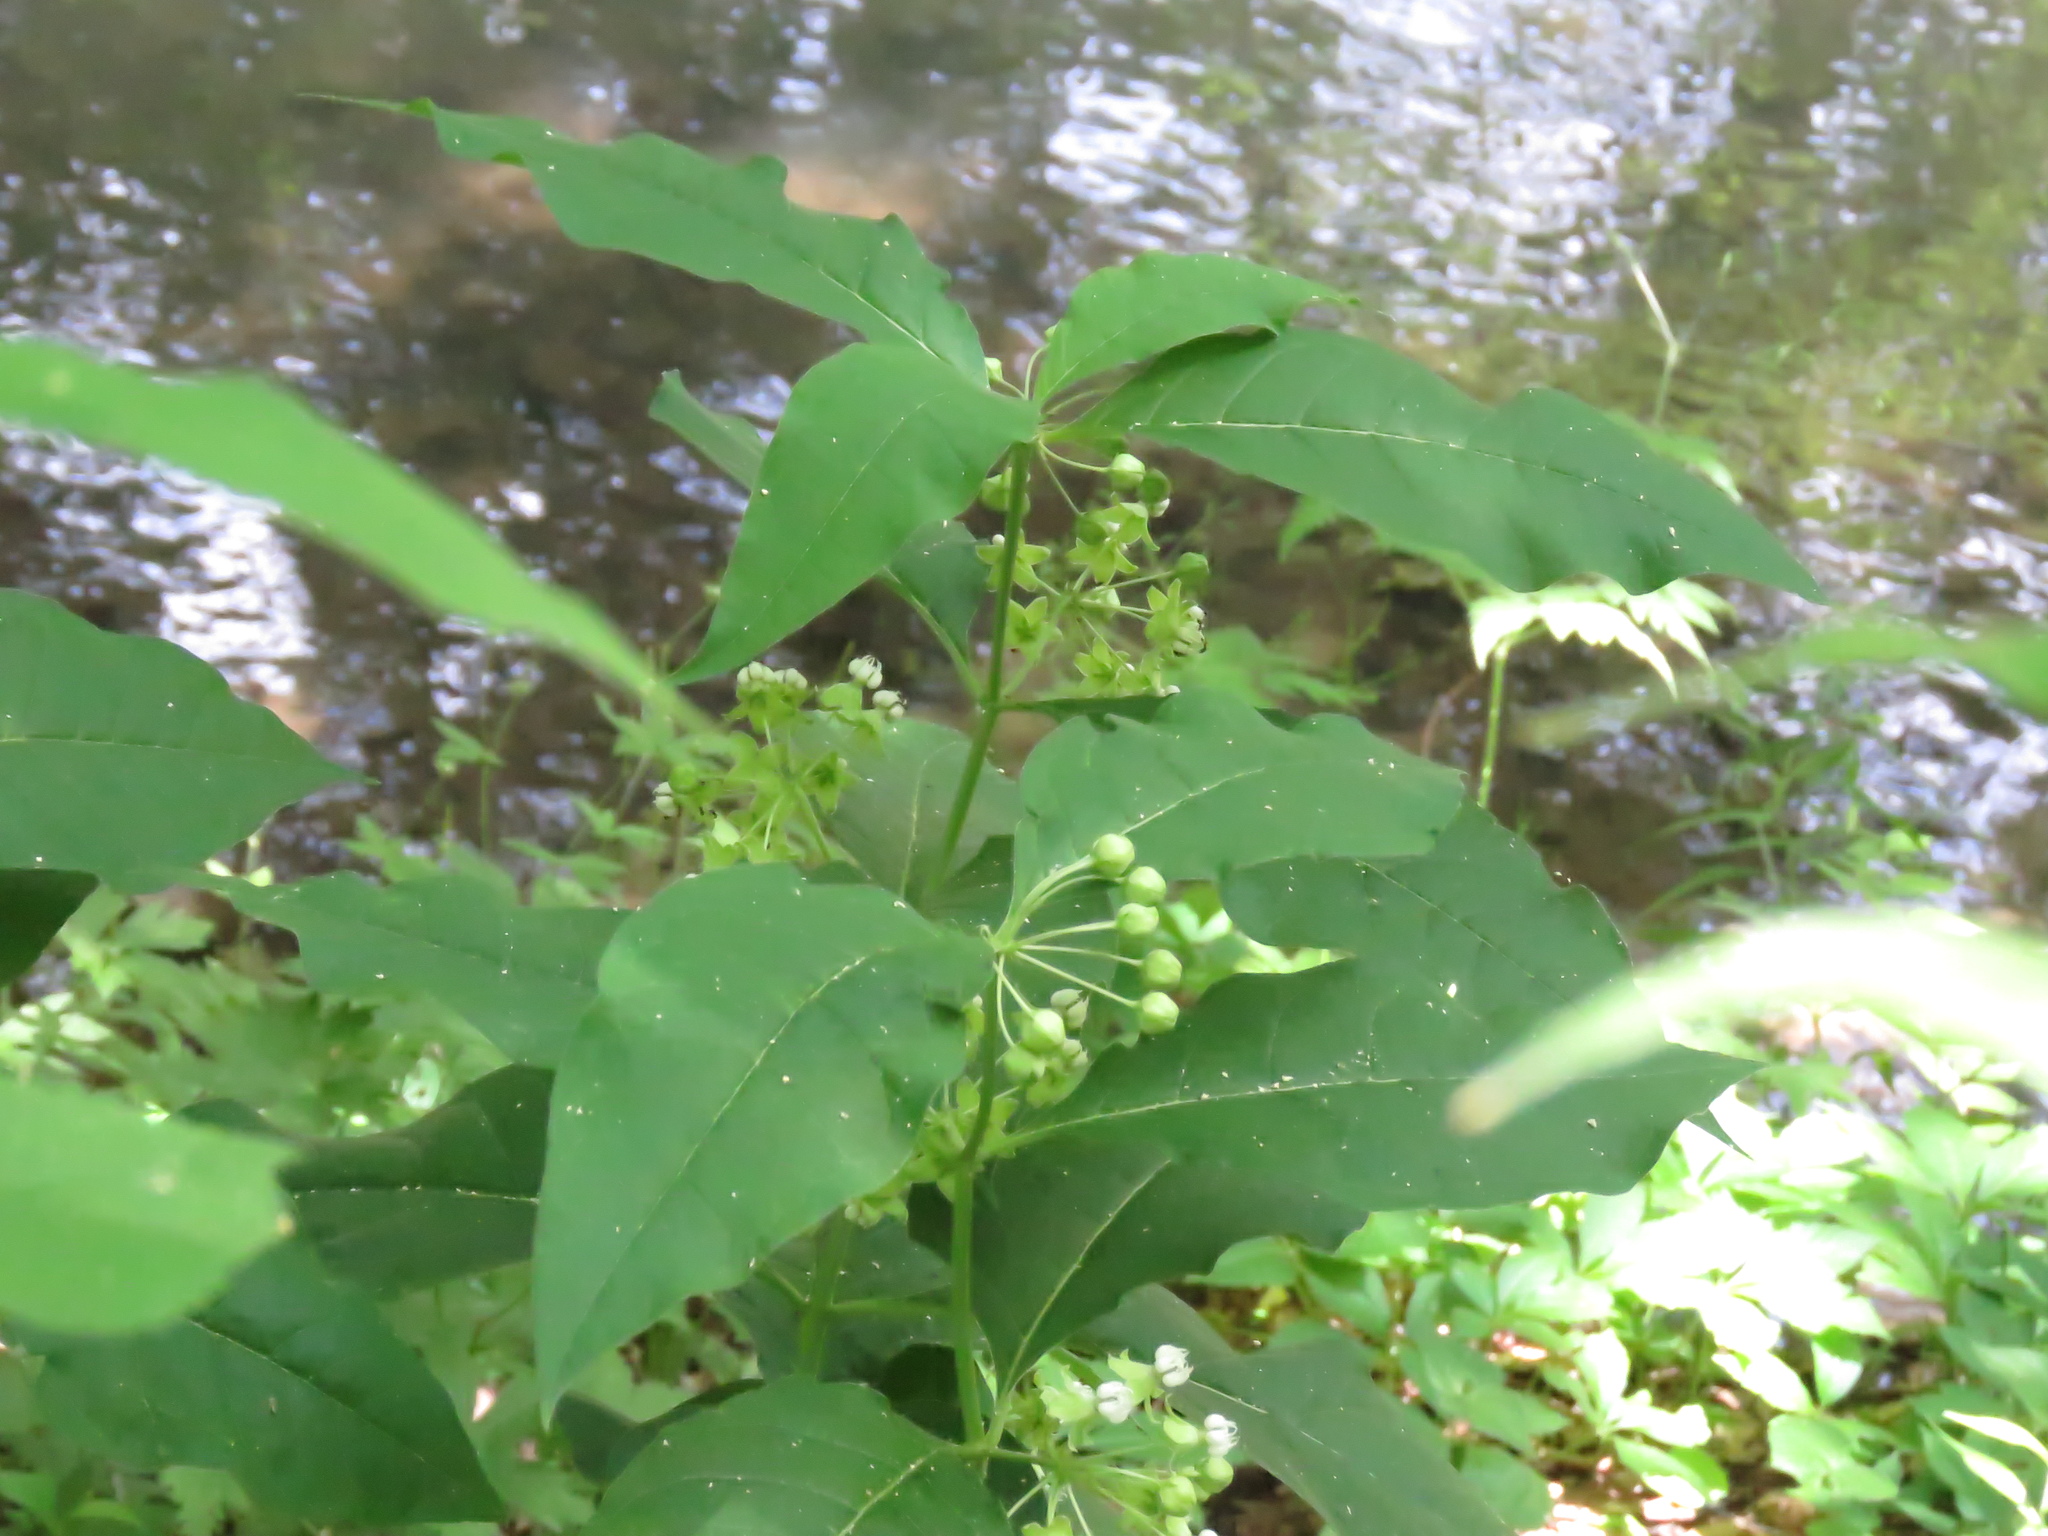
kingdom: Plantae
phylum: Tracheophyta
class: Magnoliopsida
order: Gentianales
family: Apocynaceae
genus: Asclepias
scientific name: Asclepias exaltata
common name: Poke milkweed
